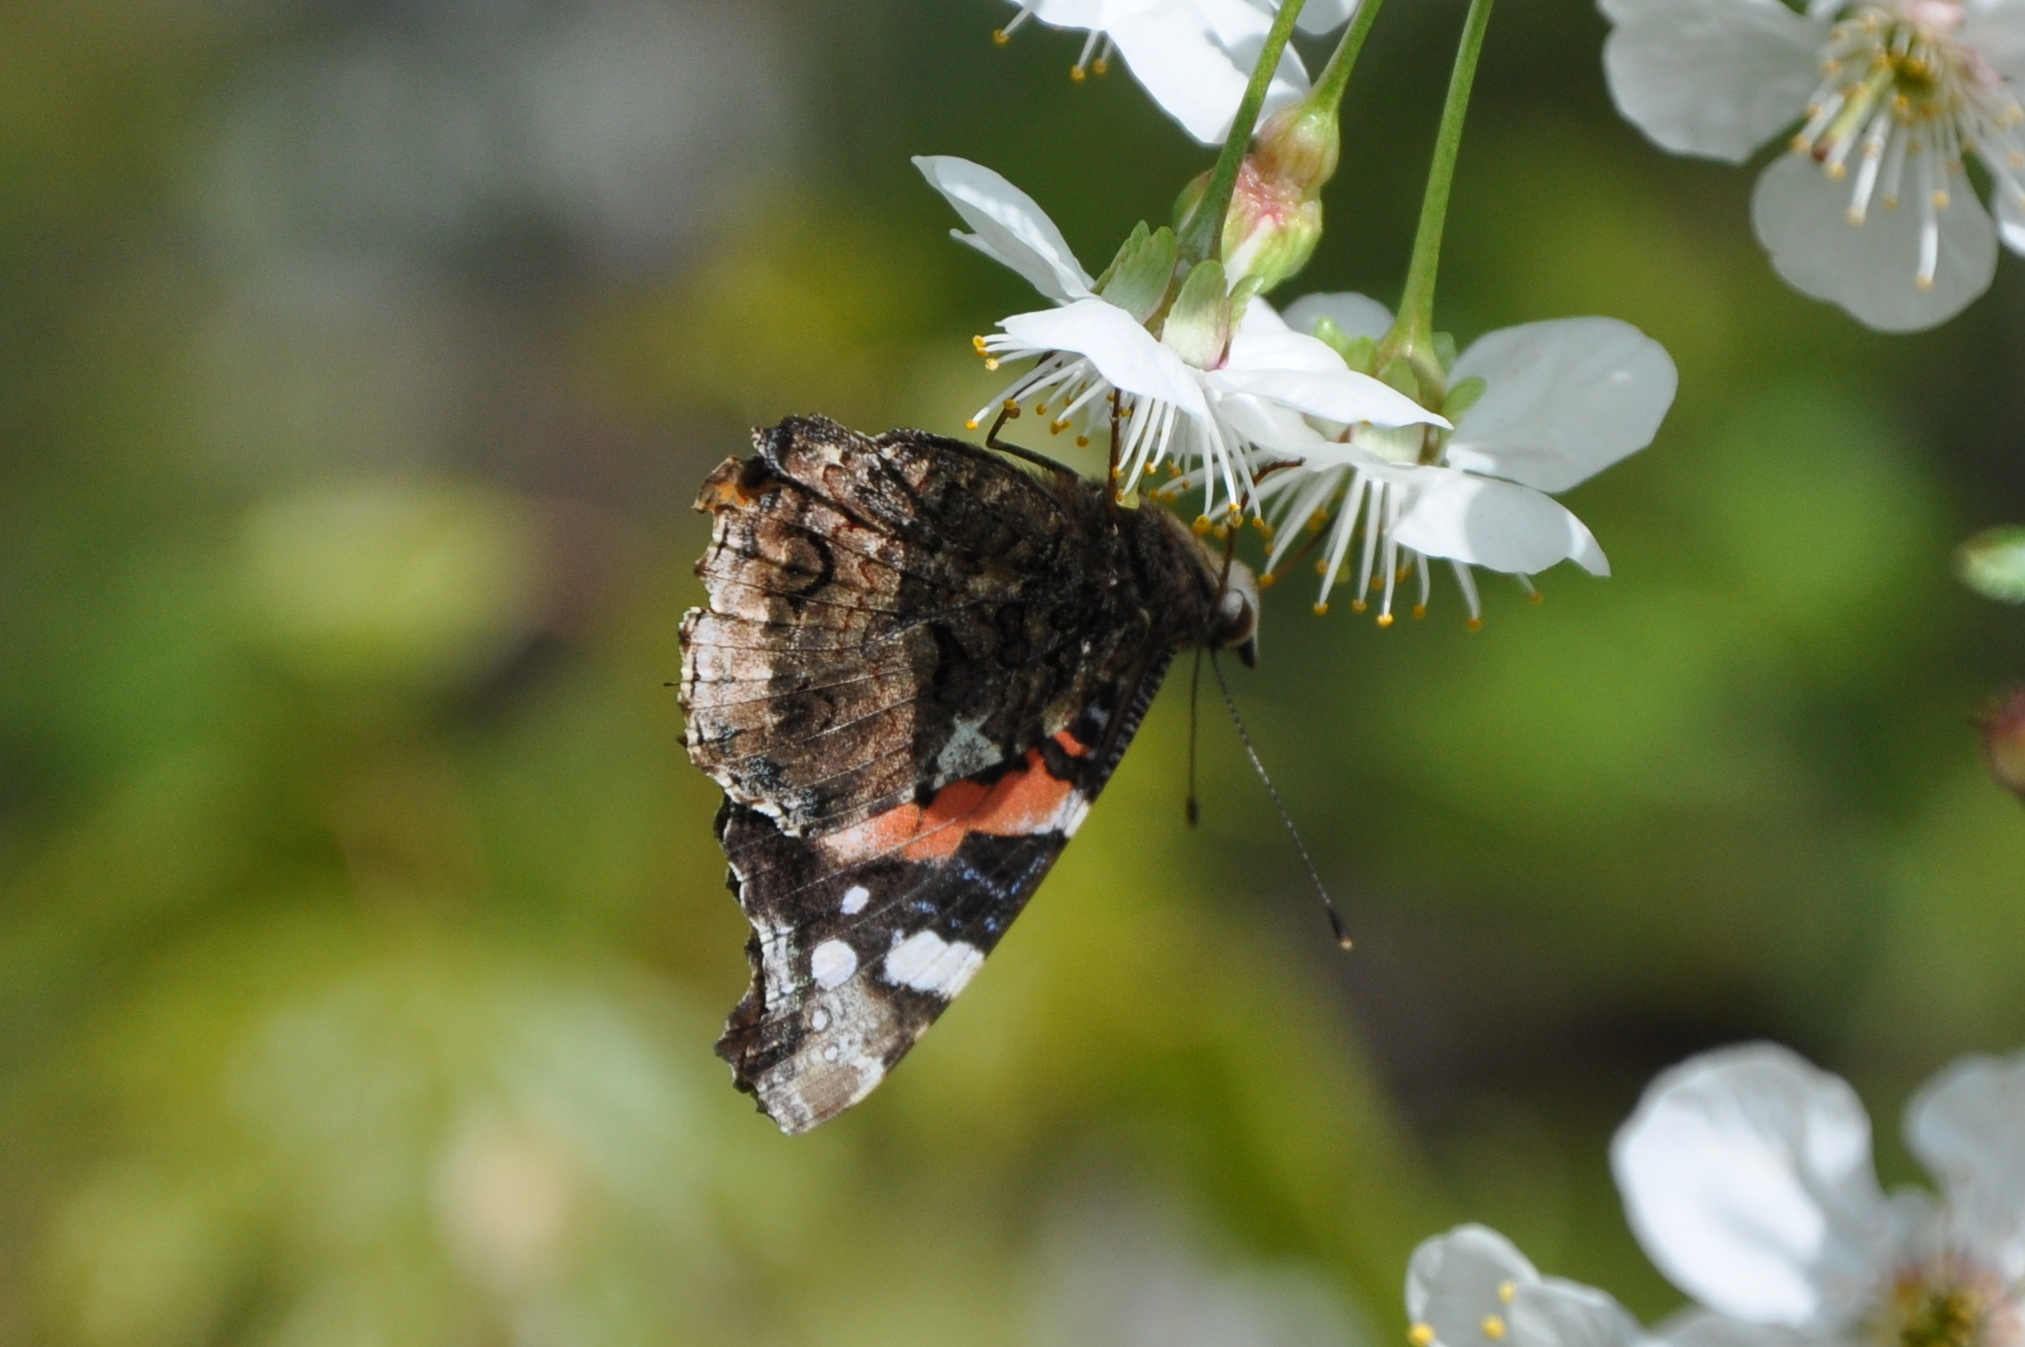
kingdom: Animalia
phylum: Arthropoda
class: Insecta
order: Lepidoptera
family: Nymphalidae
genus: Vanessa
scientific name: Vanessa atalanta
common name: Red admiral
